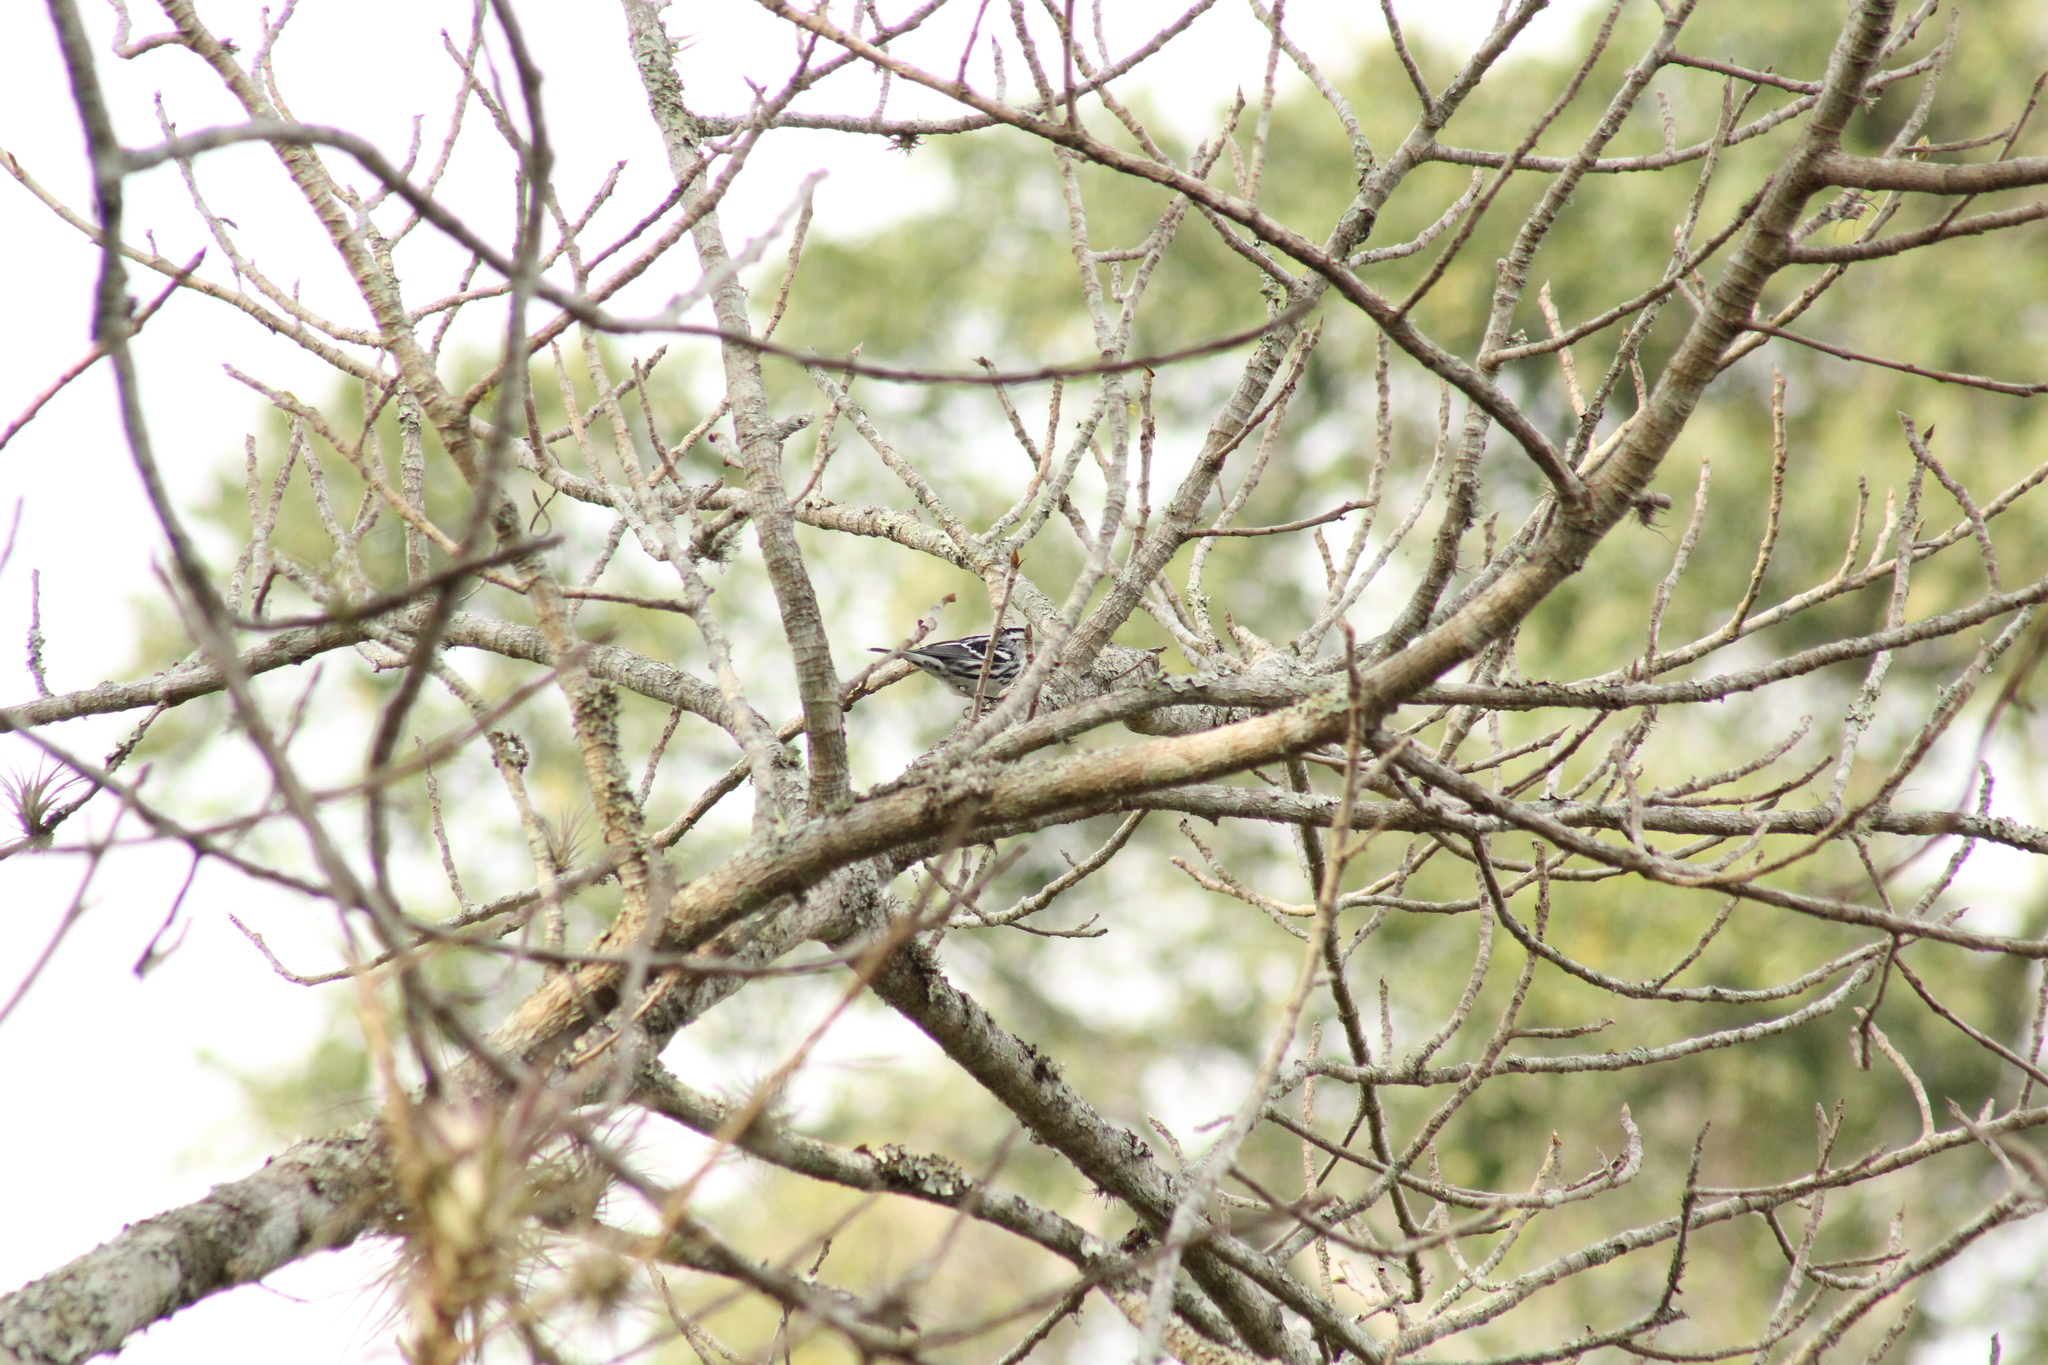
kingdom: Animalia
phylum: Chordata
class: Aves
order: Passeriformes
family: Parulidae
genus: Mniotilta
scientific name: Mniotilta varia
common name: Black-and-white warbler
